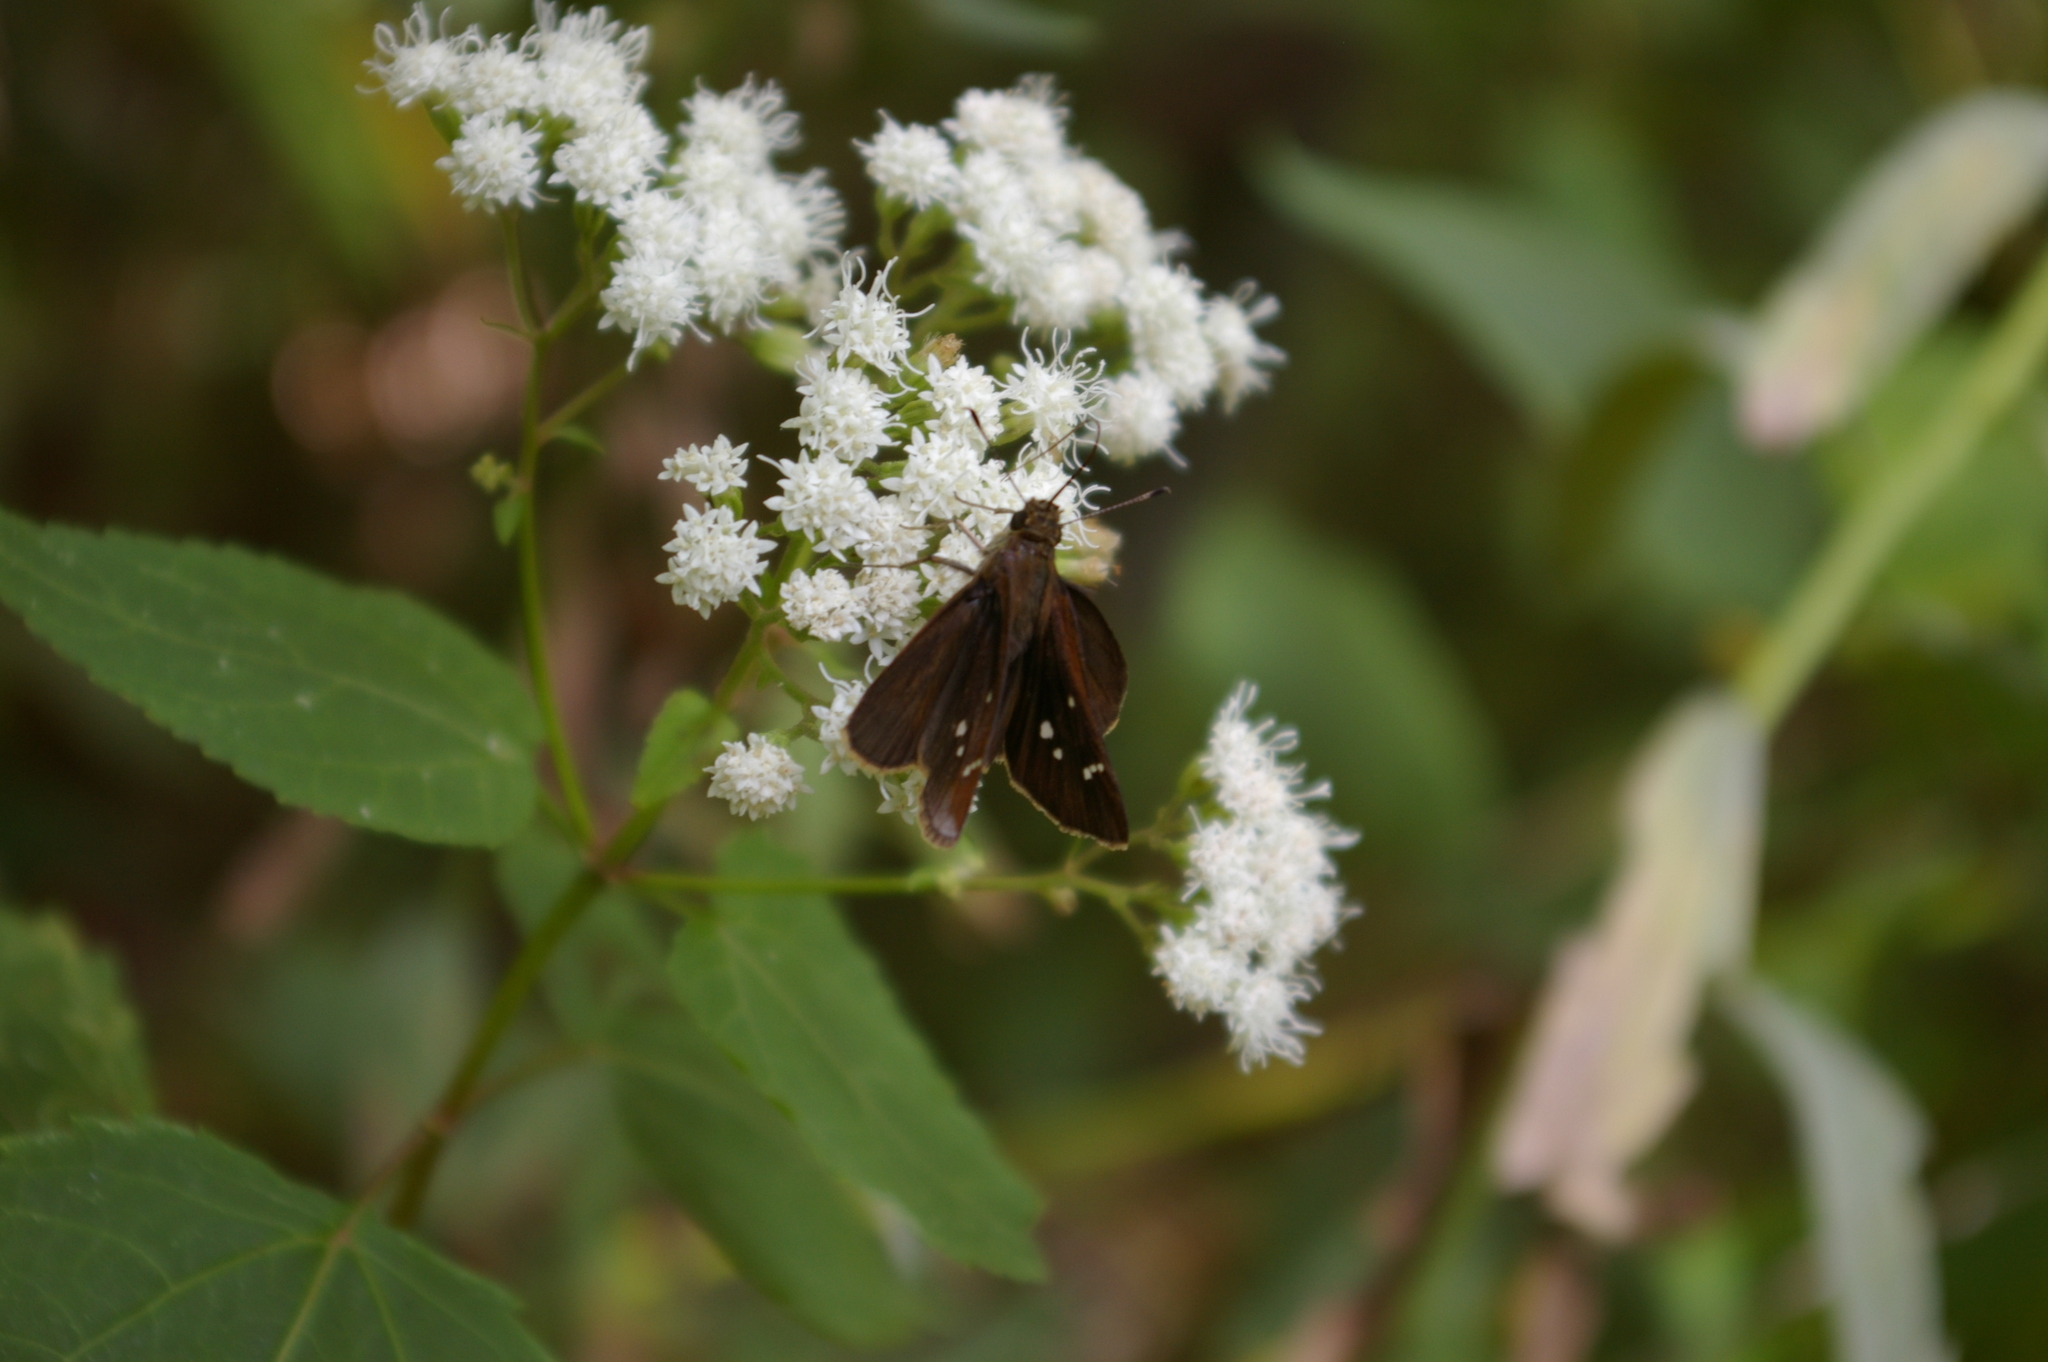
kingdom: Animalia
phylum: Arthropoda
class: Insecta
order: Lepidoptera
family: Hesperiidae
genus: Lerema
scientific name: Lerema accius
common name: Clouded skipper
